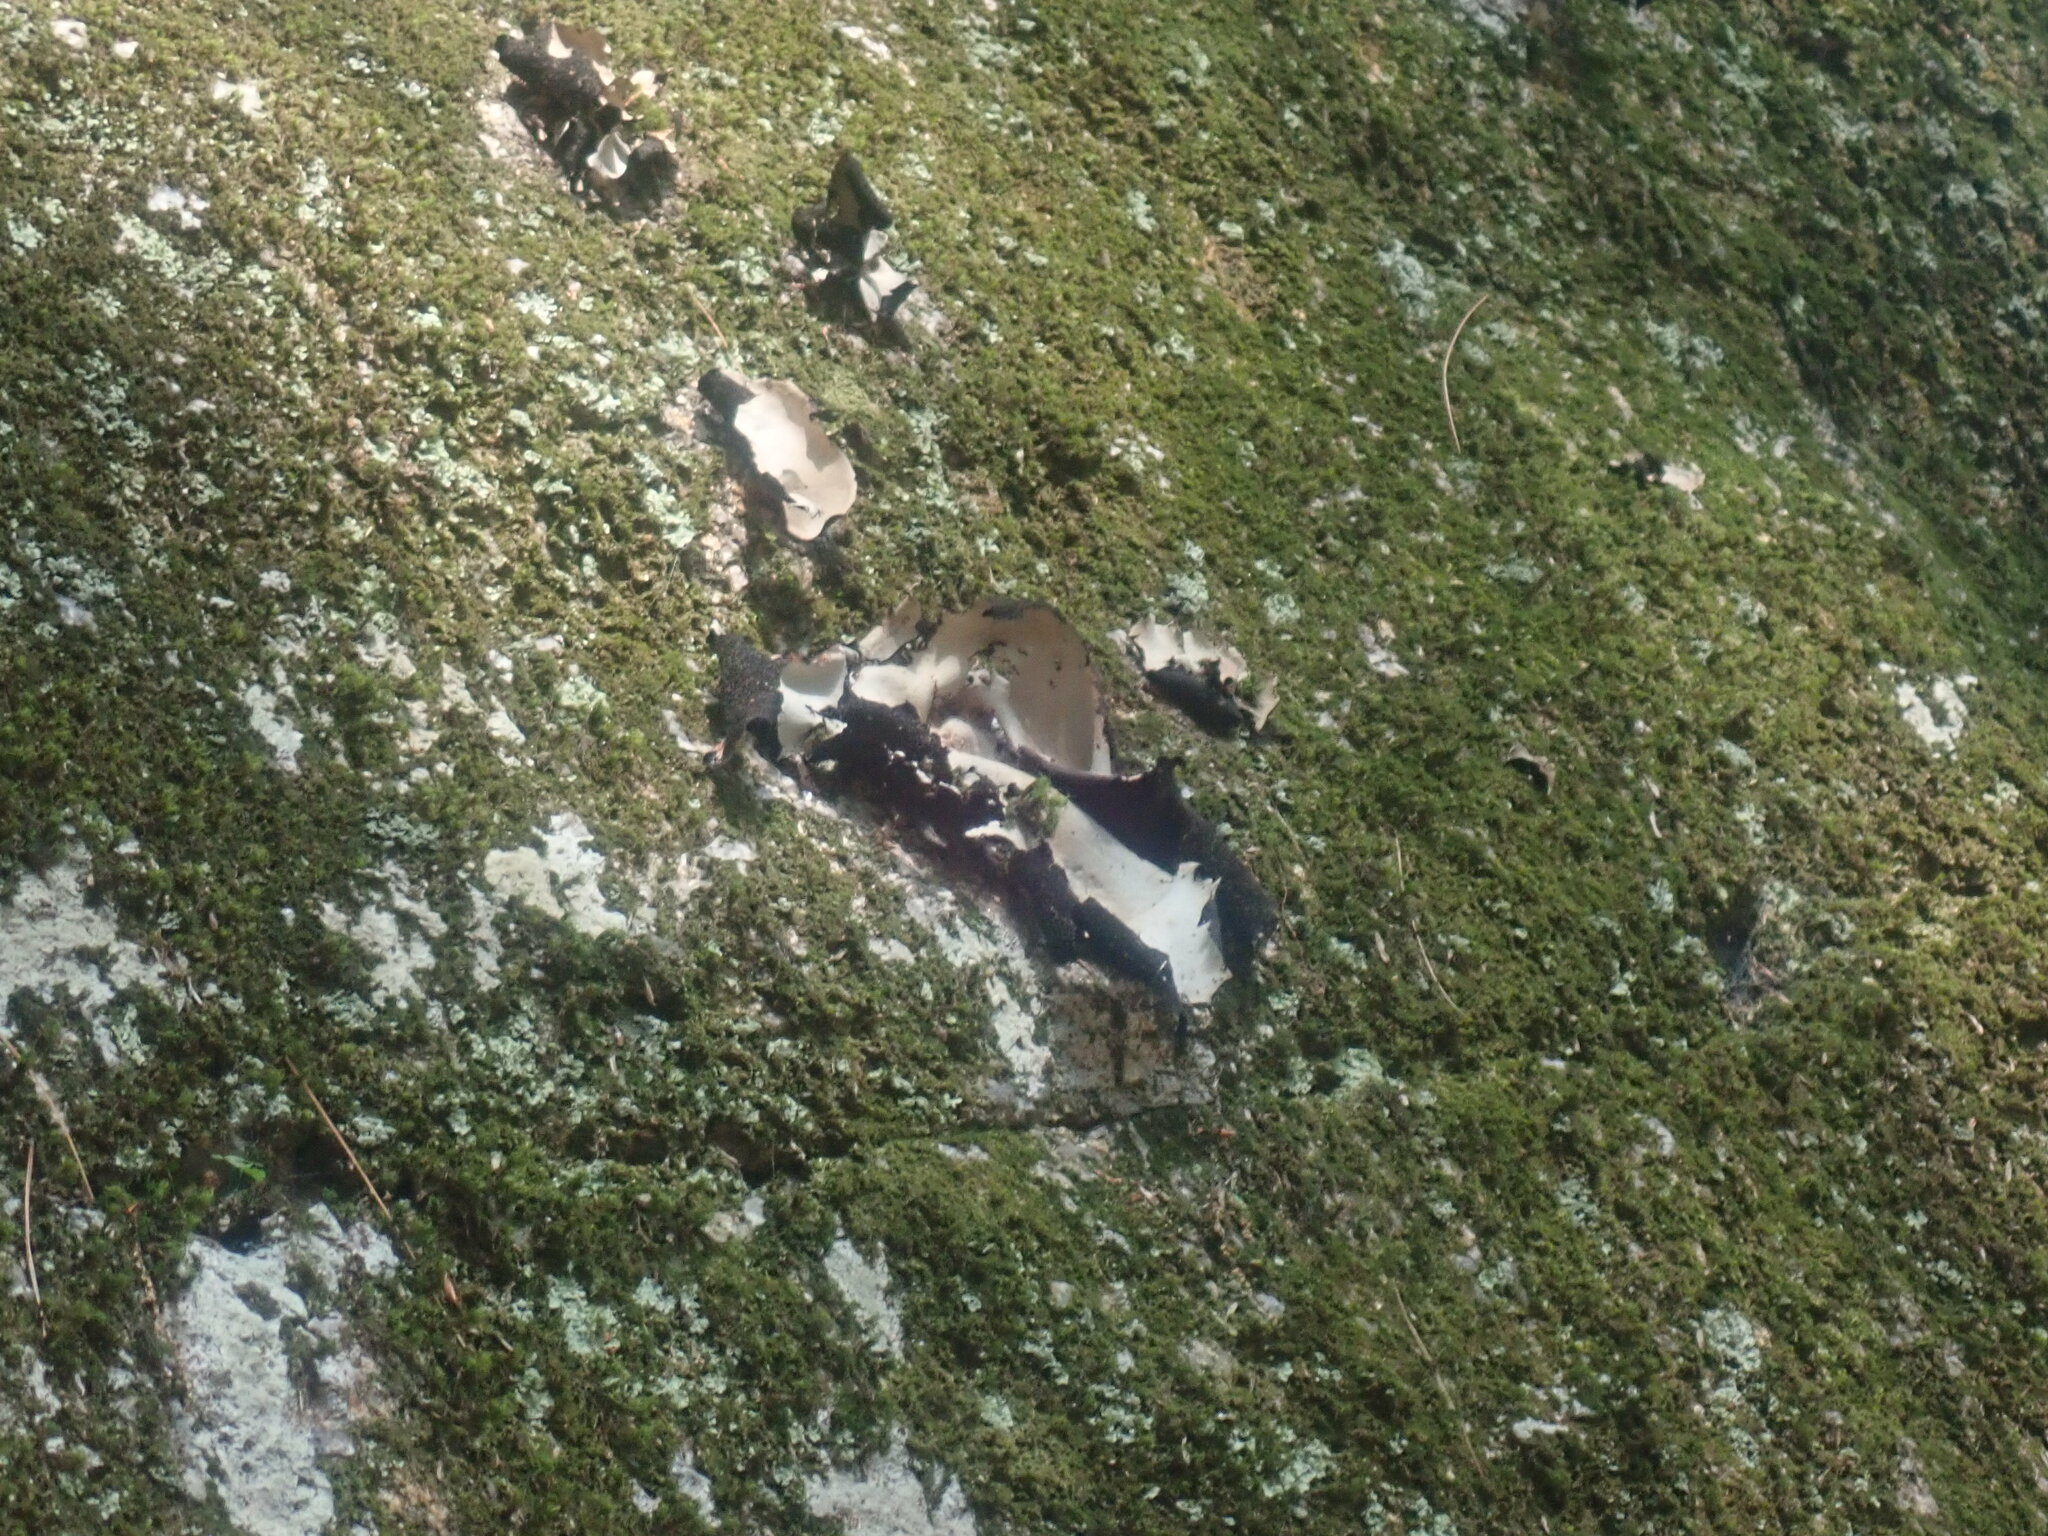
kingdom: Fungi
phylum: Ascomycota
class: Lecanoromycetes
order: Umbilicariales
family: Umbilicariaceae
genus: Umbilicaria
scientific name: Umbilicaria mammulata
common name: Smooth rock tripe
